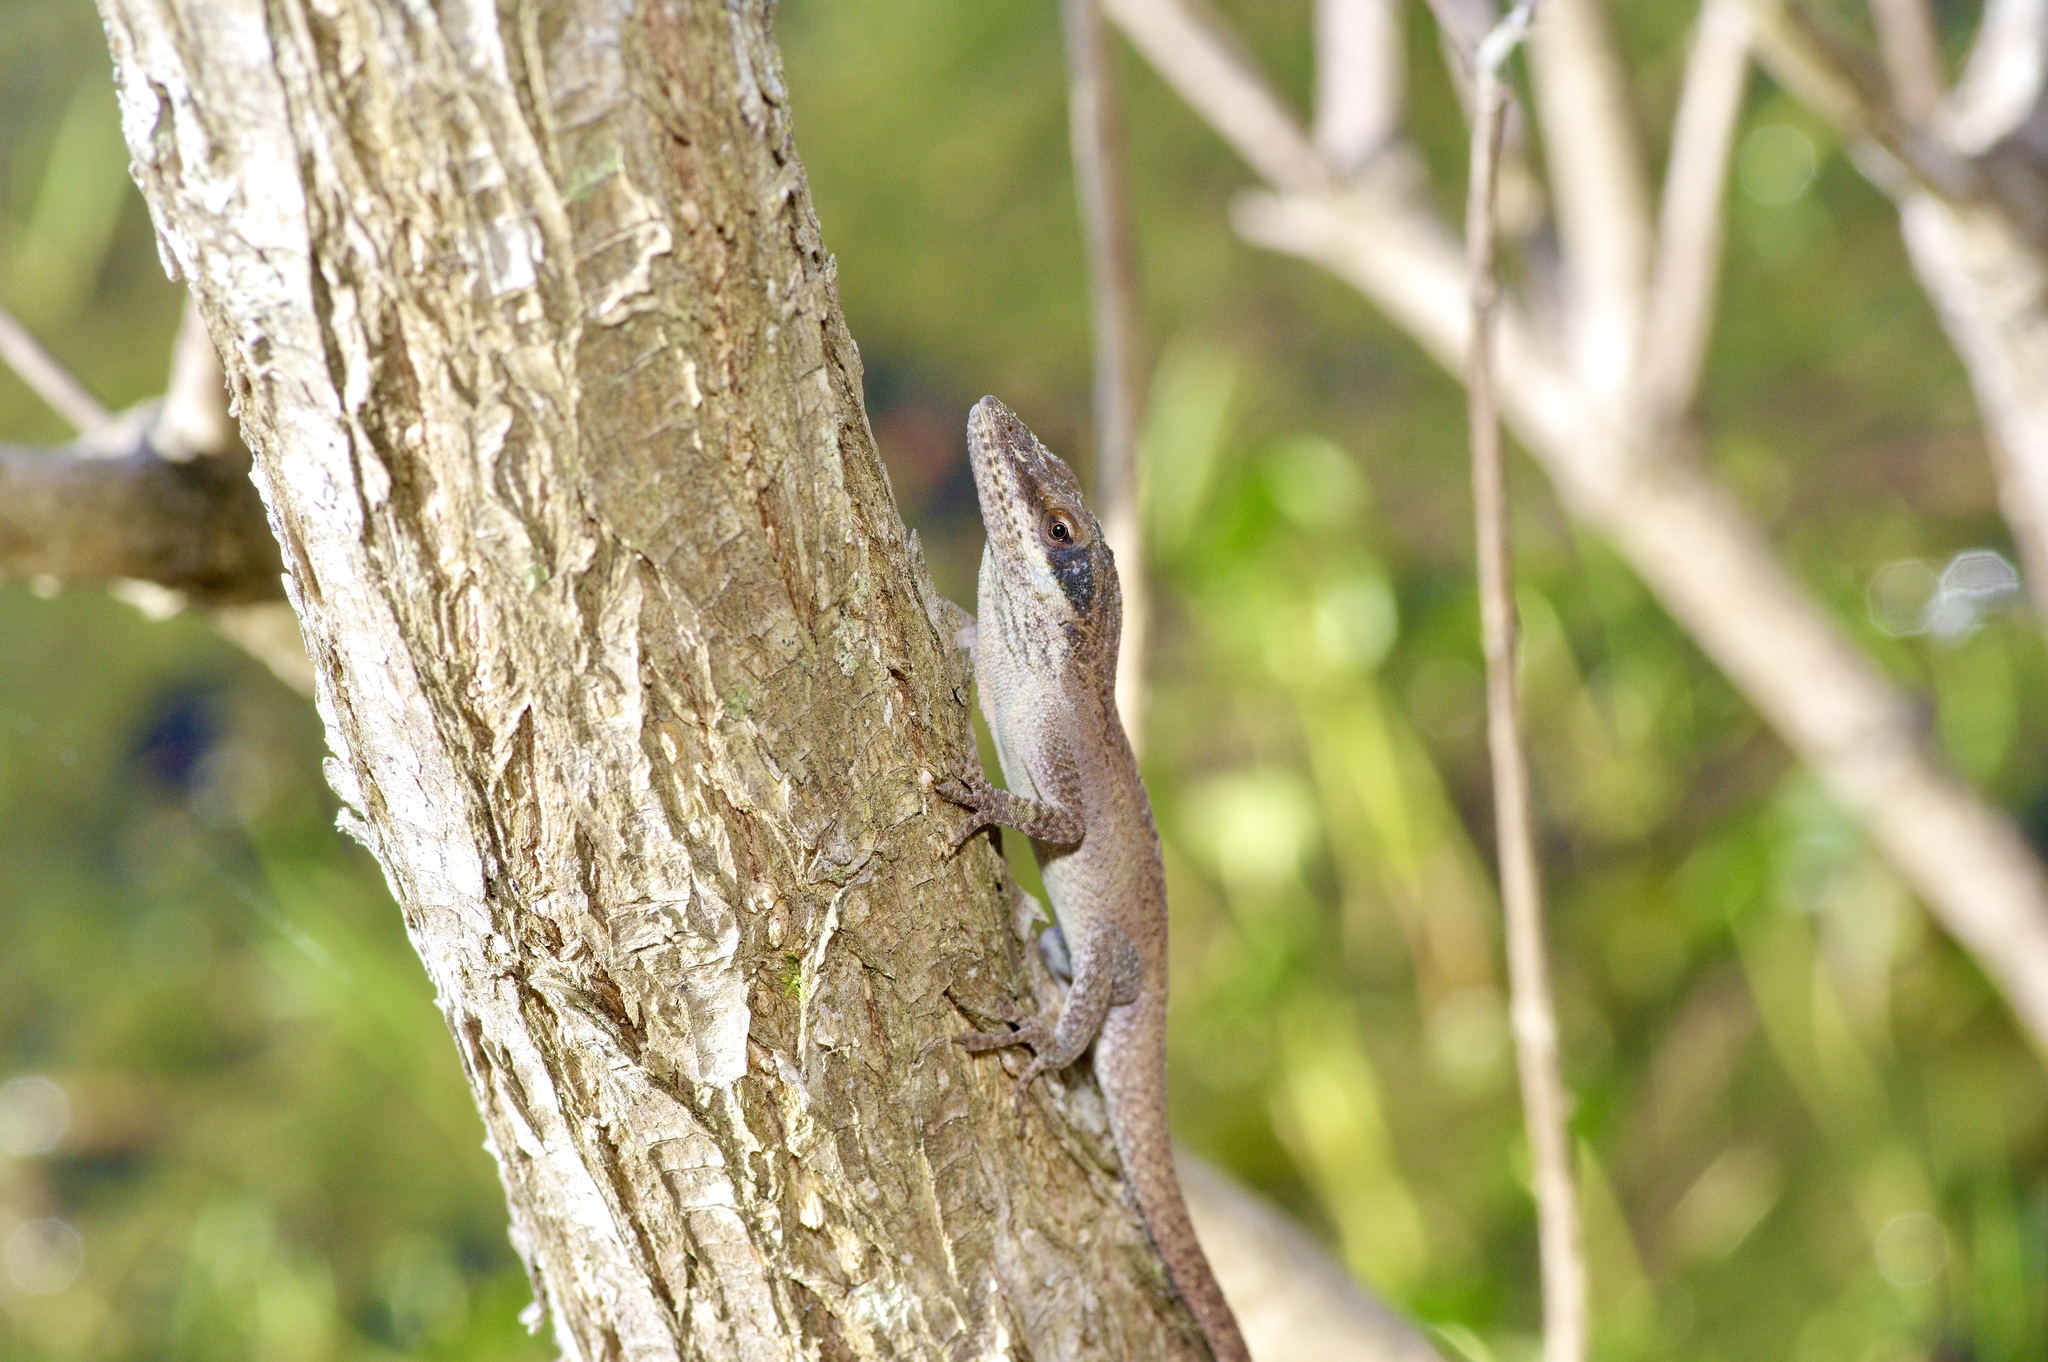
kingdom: Animalia
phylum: Chordata
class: Squamata
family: Dactyloidae
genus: Anolis
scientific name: Anolis carolinensis
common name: Green anole
